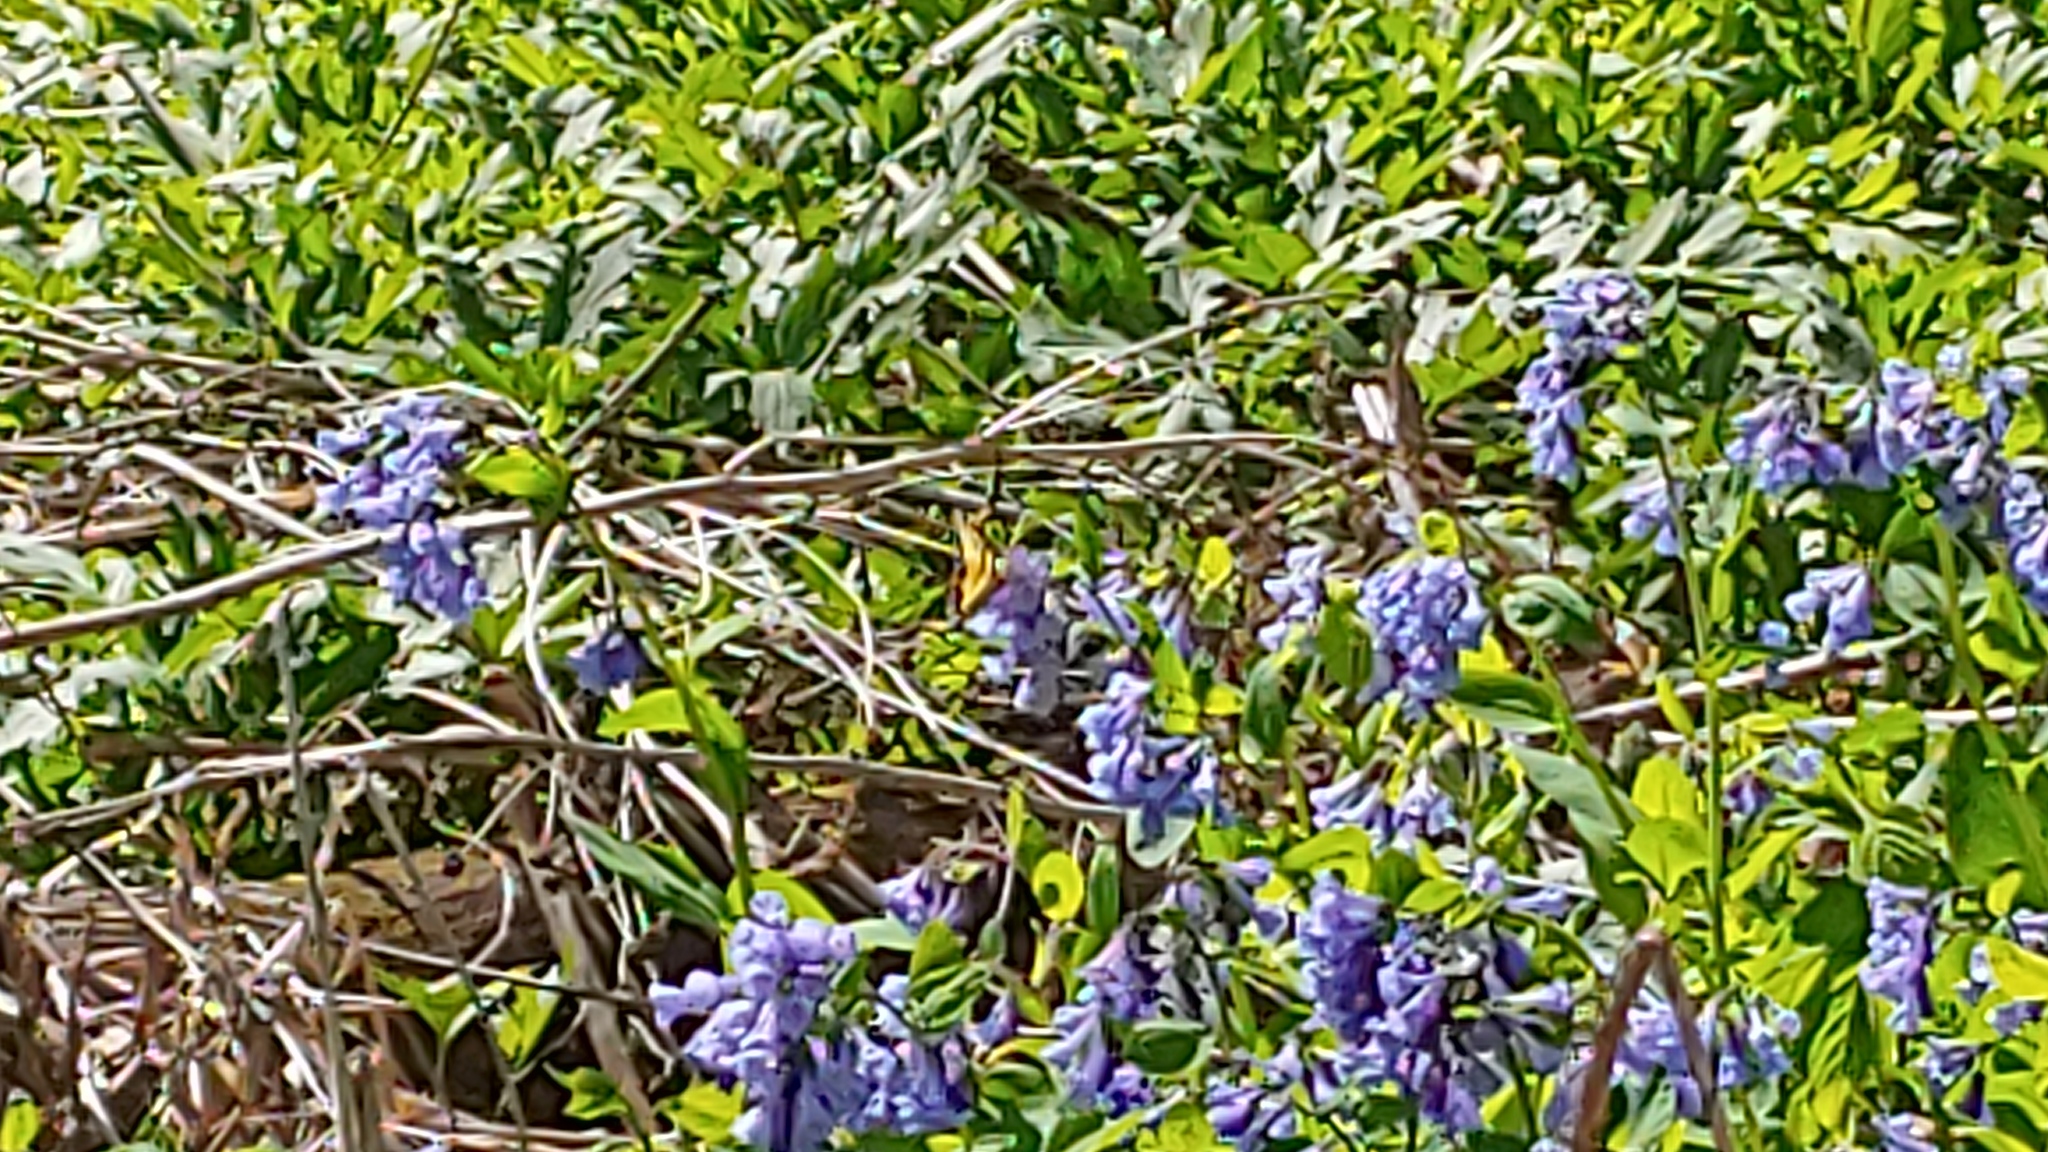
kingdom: Animalia
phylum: Arthropoda
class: Insecta
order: Lepidoptera
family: Papilionidae
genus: Papilio
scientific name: Papilio glaucus
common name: Tiger swallowtail
